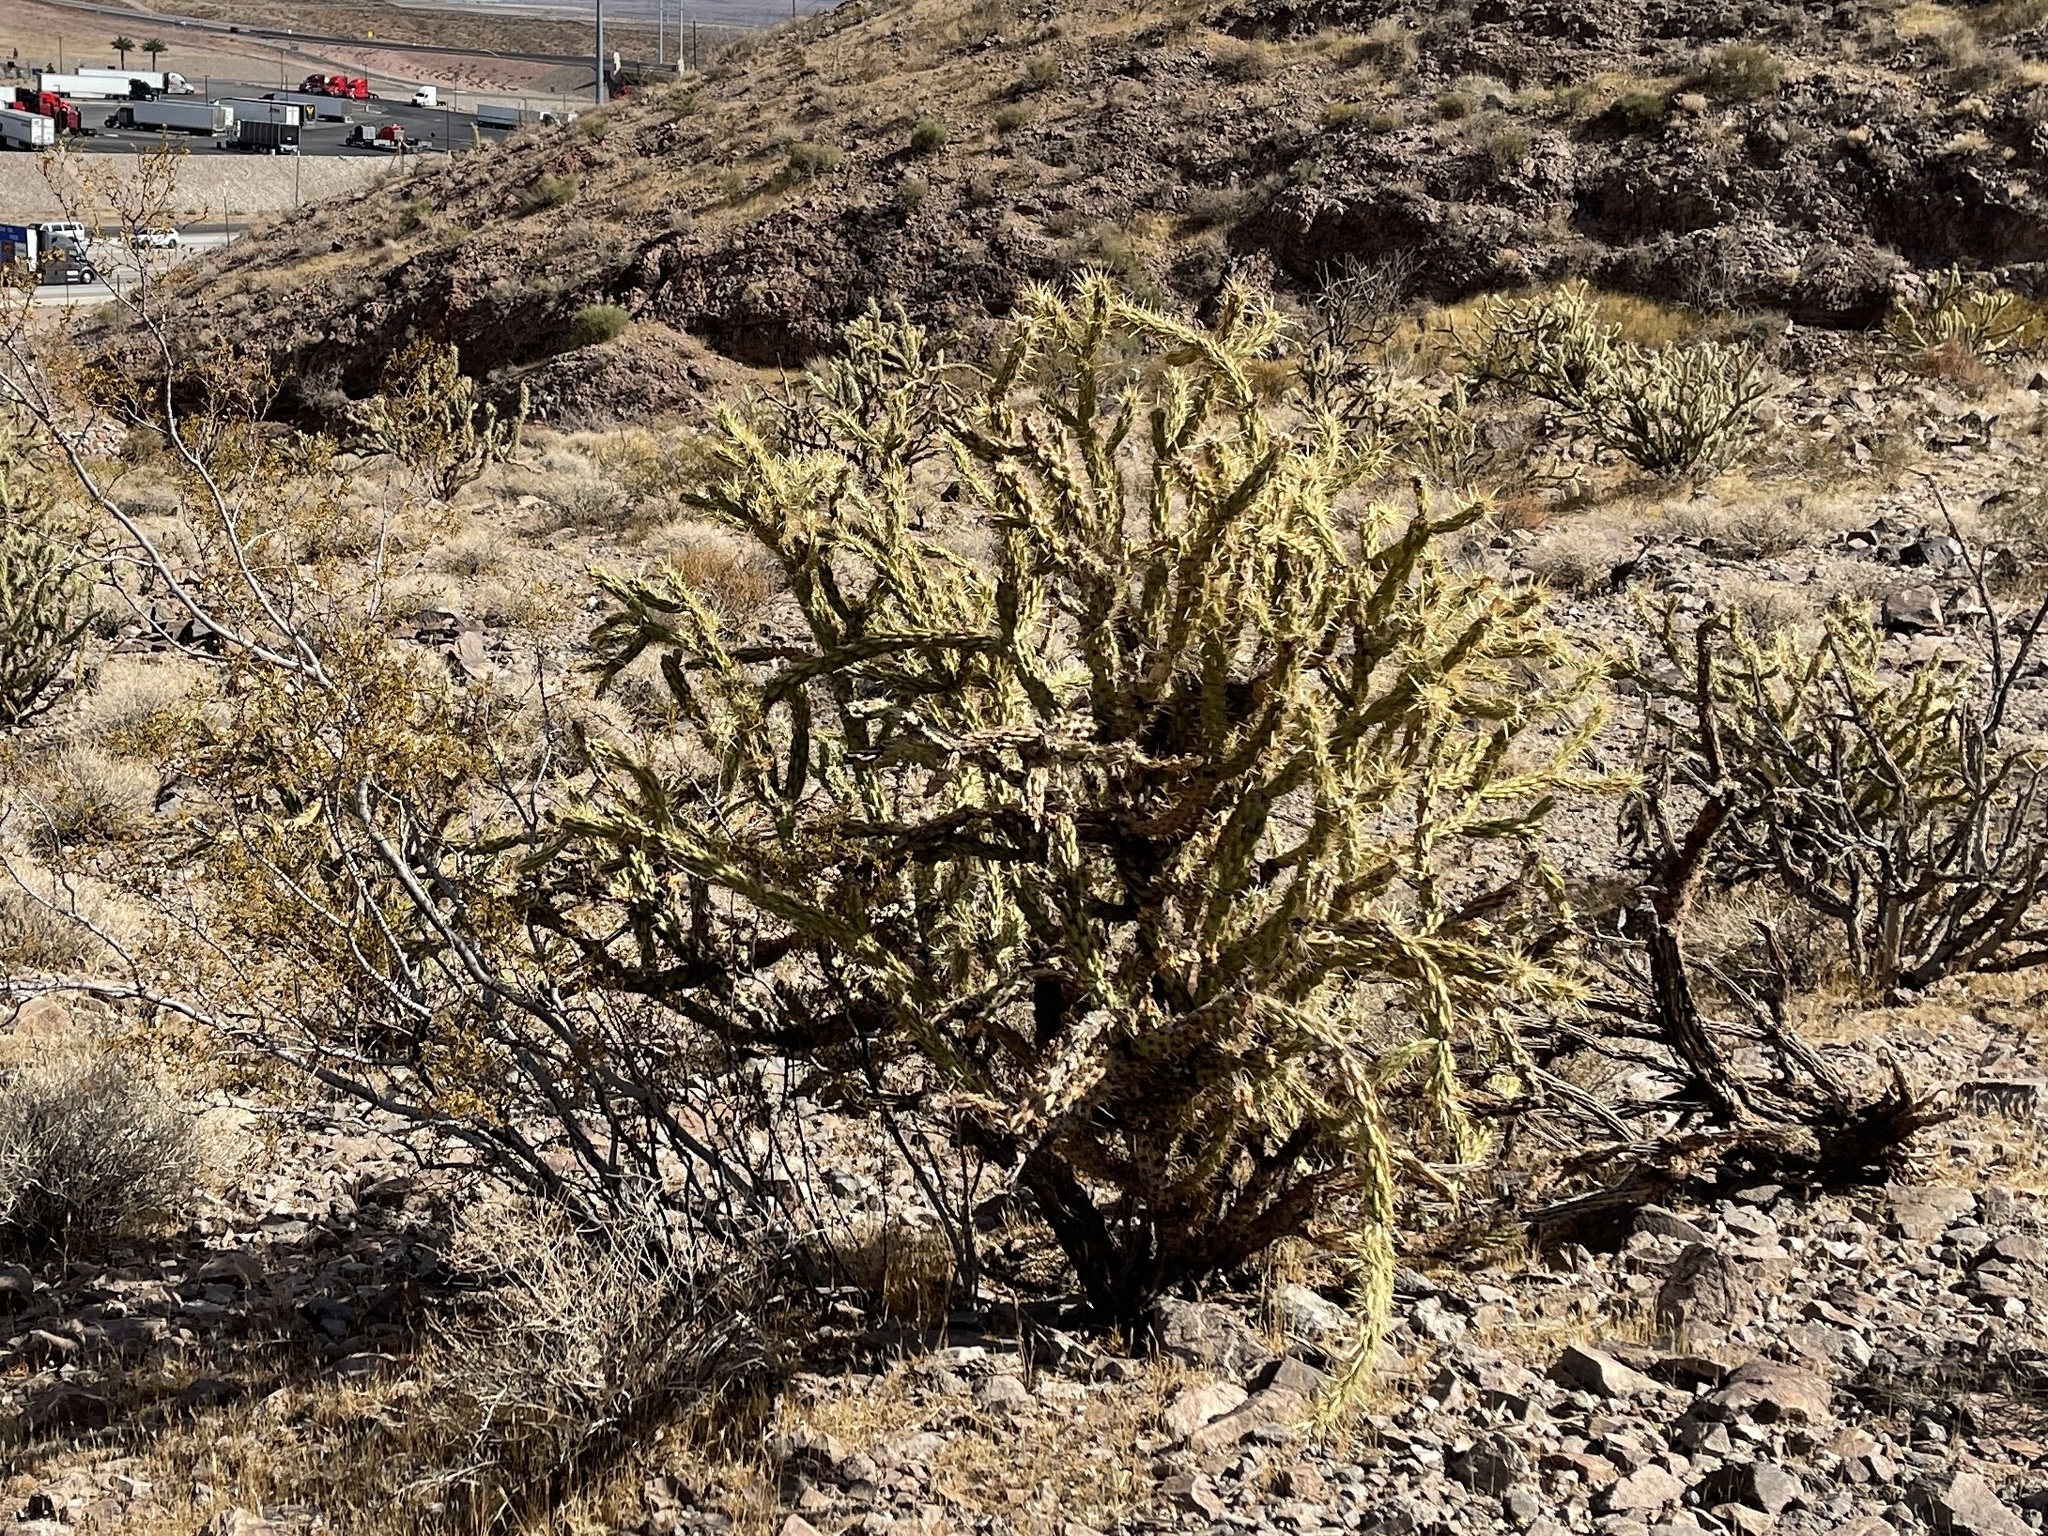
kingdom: Plantae
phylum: Tracheophyta
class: Magnoliopsida
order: Caryophyllales
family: Cactaceae
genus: Cylindropuntia
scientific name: Cylindropuntia acanthocarpa
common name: Buckhorn cholla
